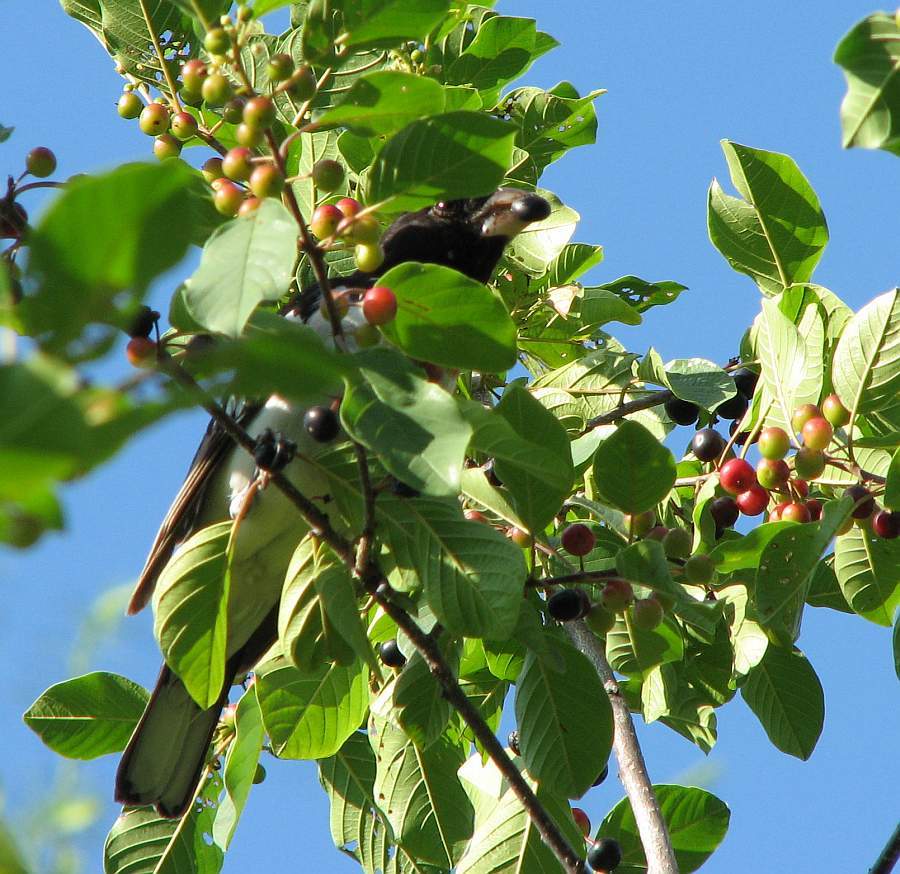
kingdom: Animalia
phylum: Chordata
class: Aves
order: Passeriformes
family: Cardinalidae
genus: Pheucticus
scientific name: Pheucticus ludovicianus
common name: Rose-breasted grosbeak
